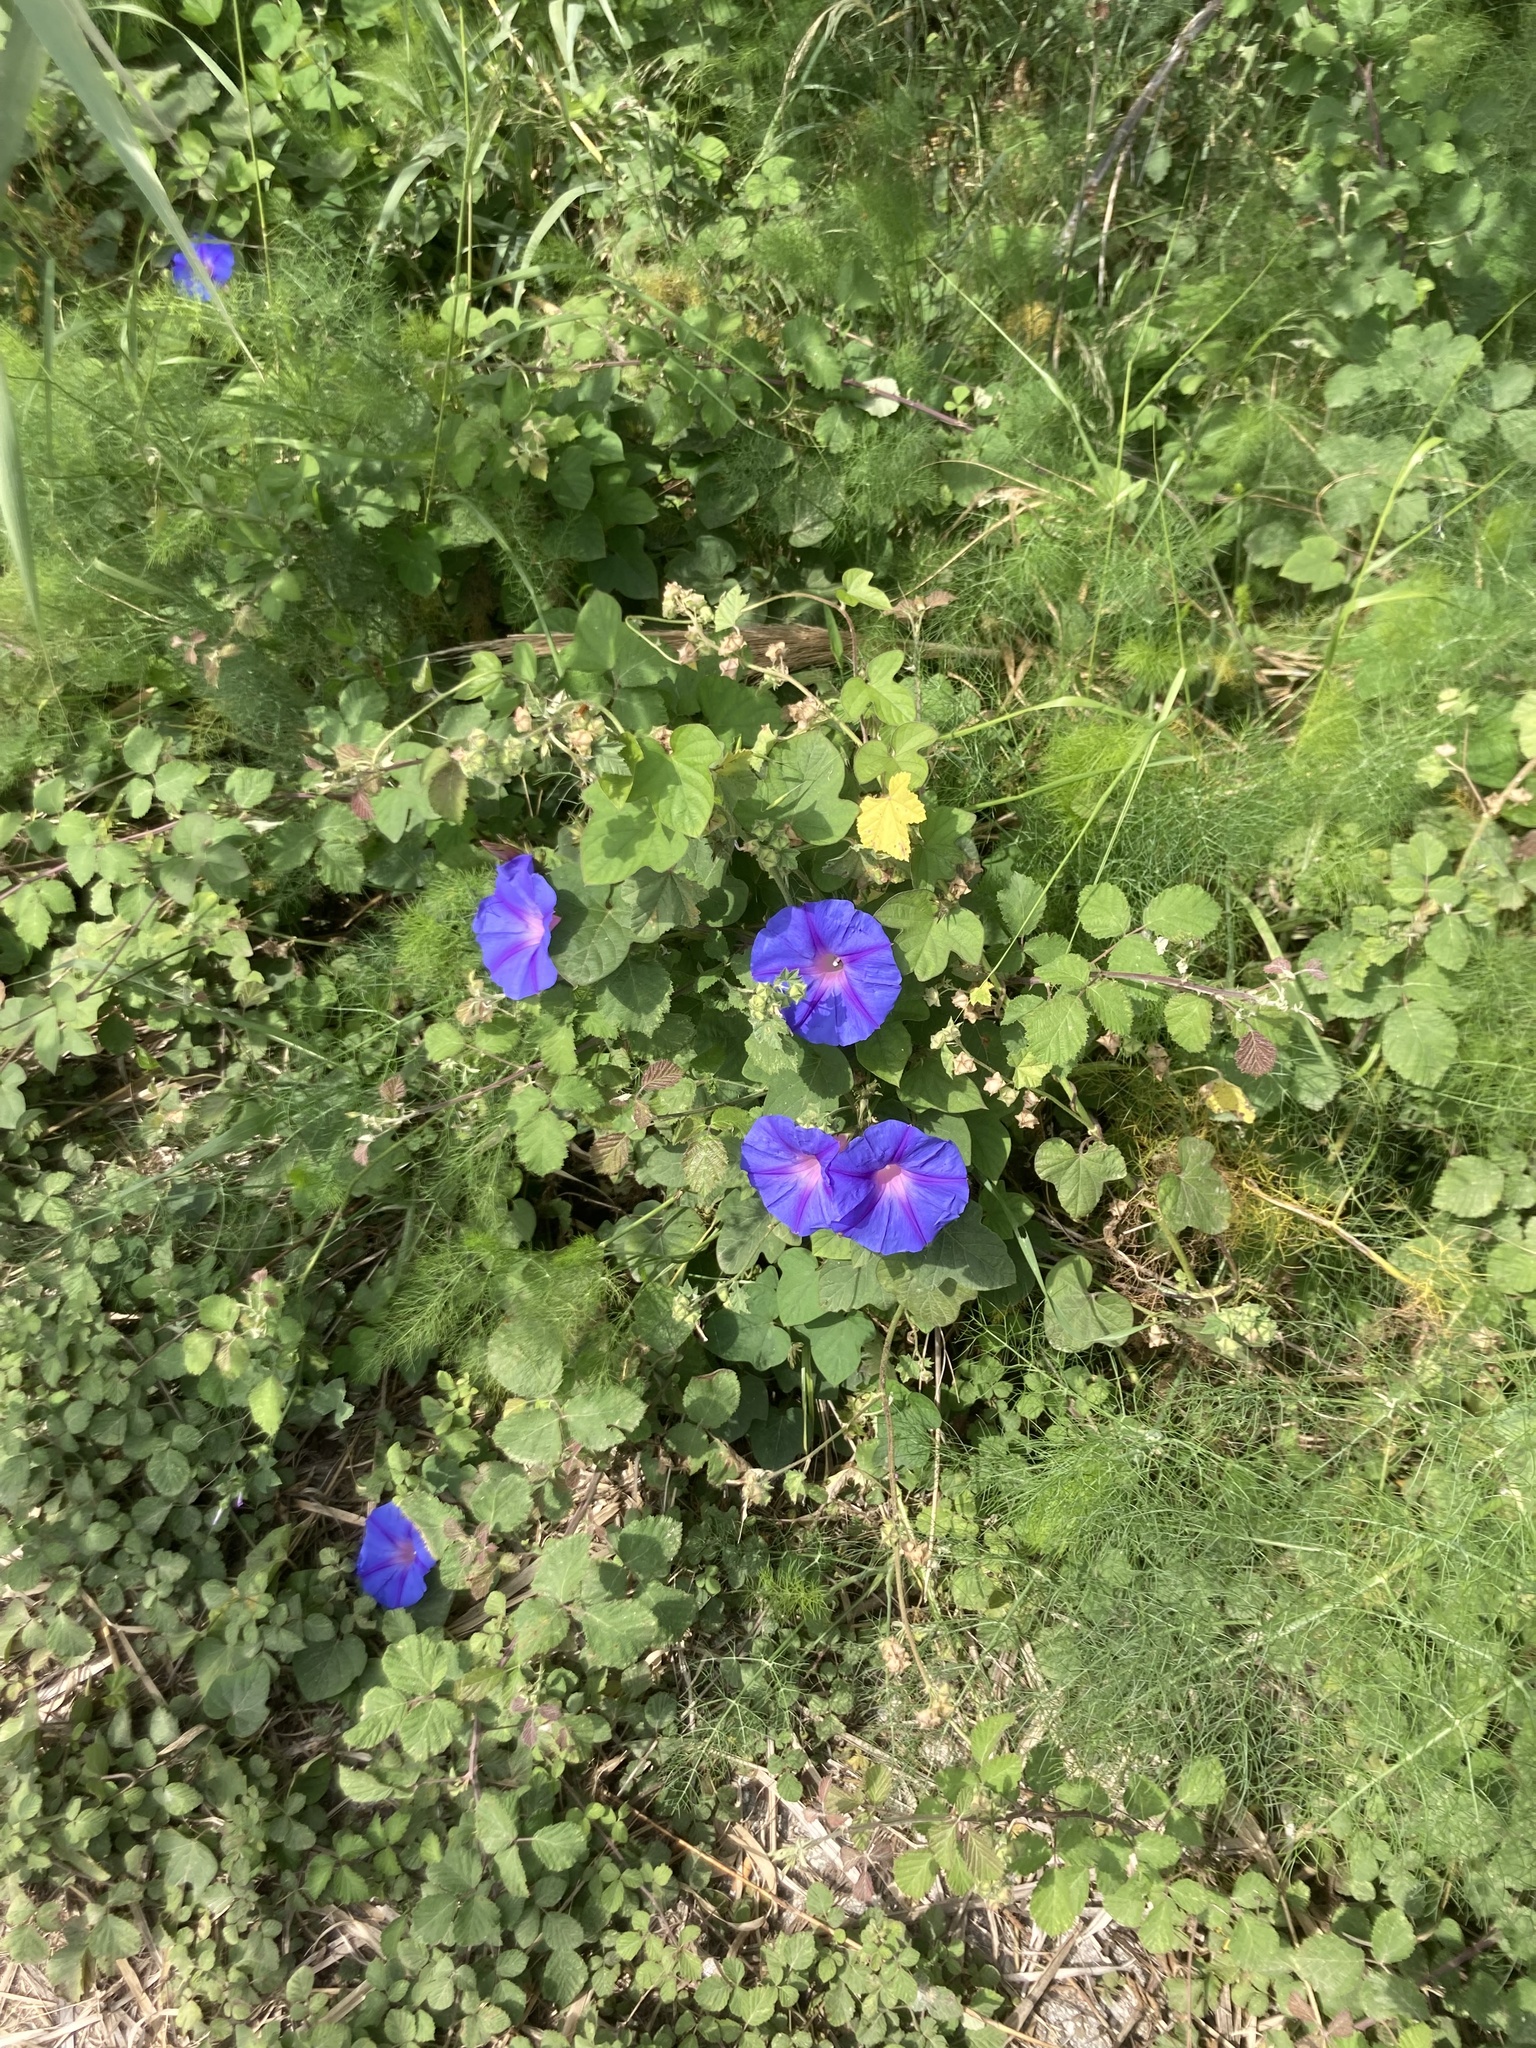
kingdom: Plantae
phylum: Tracheophyta
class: Magnoliopsida
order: Solanales
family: Convolvulaceae
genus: Ipomoea
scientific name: Ipomoea indica
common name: Blue dawnflower
